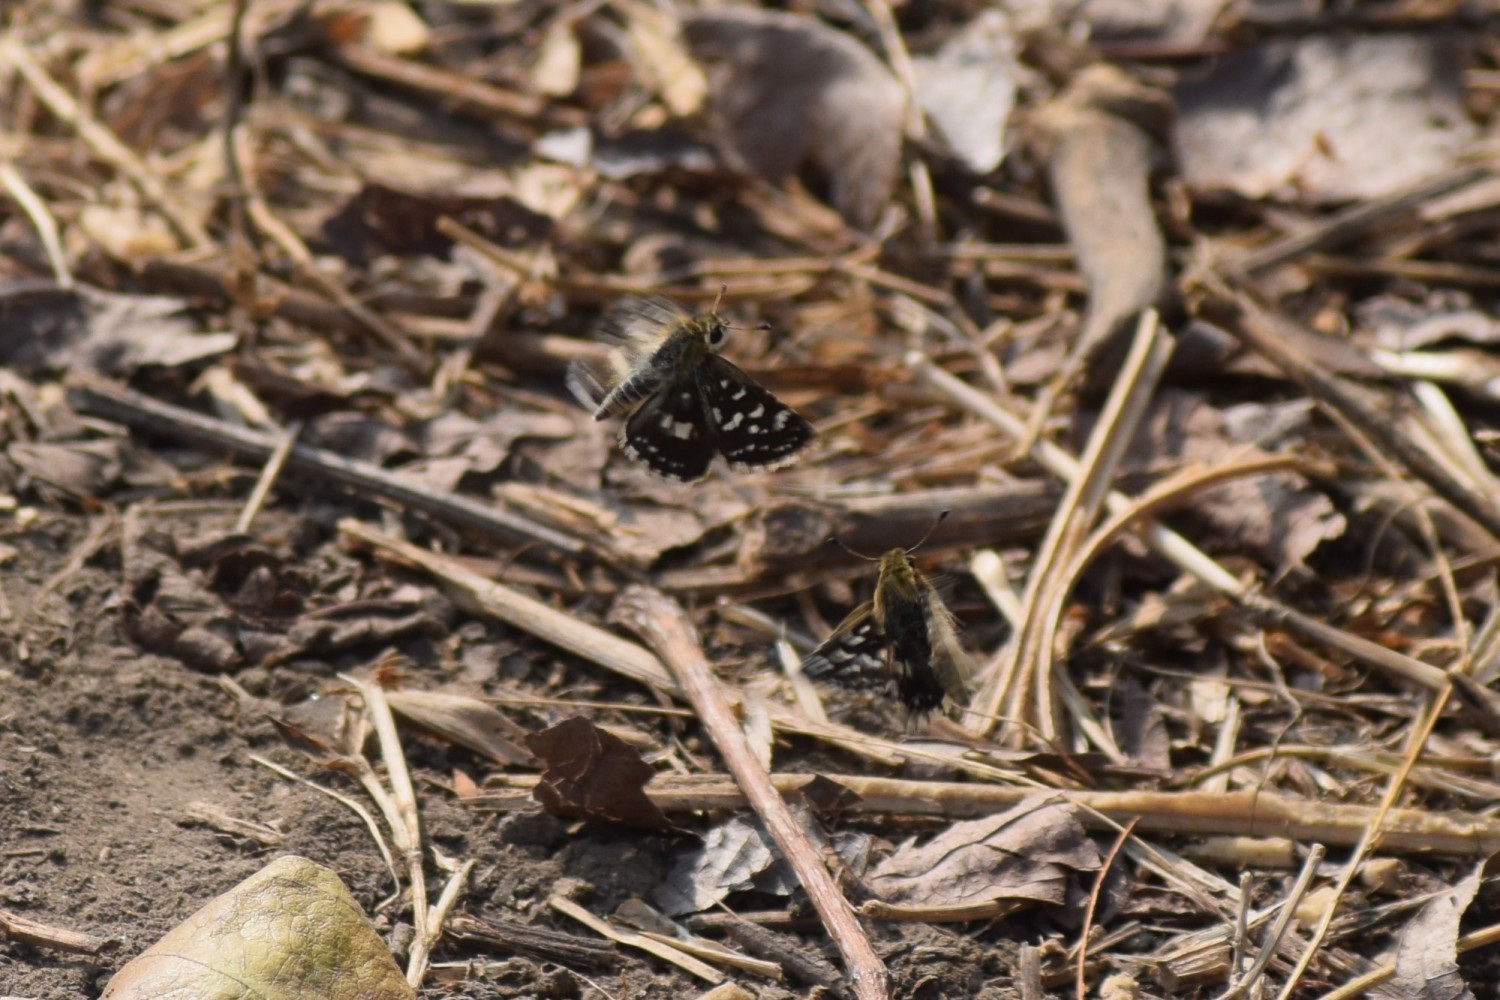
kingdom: Animalia
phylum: Arthropoda
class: Insecta
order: Lepidoptera
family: Hesperiidae
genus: Spialia
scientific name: Spialia galba
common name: Indian skipper
